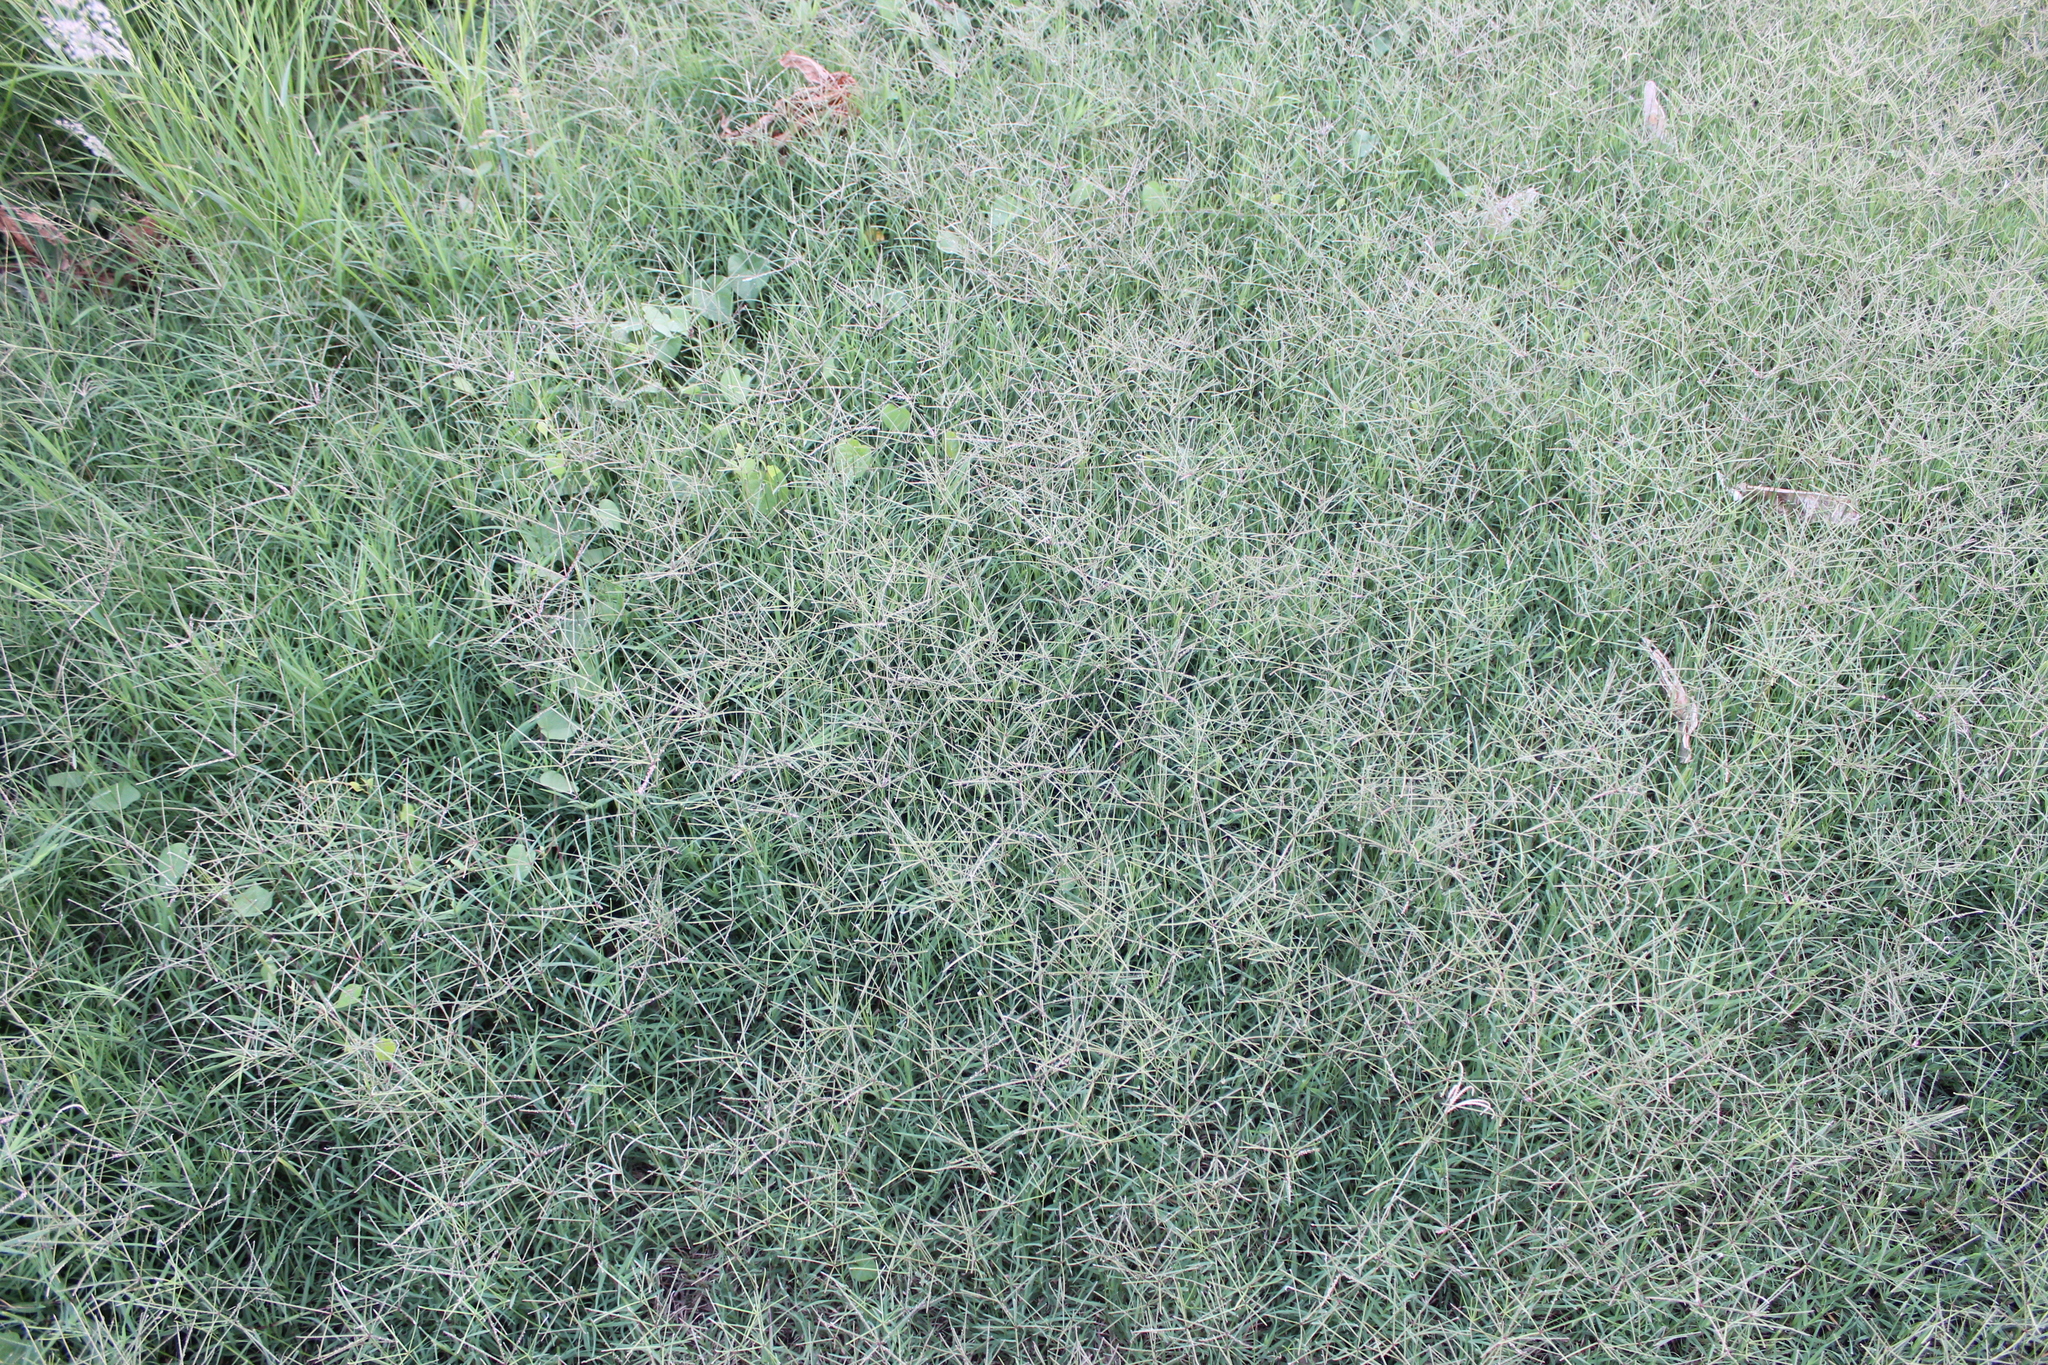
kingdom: Plantae
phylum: Tracheophyta
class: Liliopsida
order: Poales
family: Poaceae
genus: Cynodon
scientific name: Cynodon dactylon
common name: Bermuda grass
